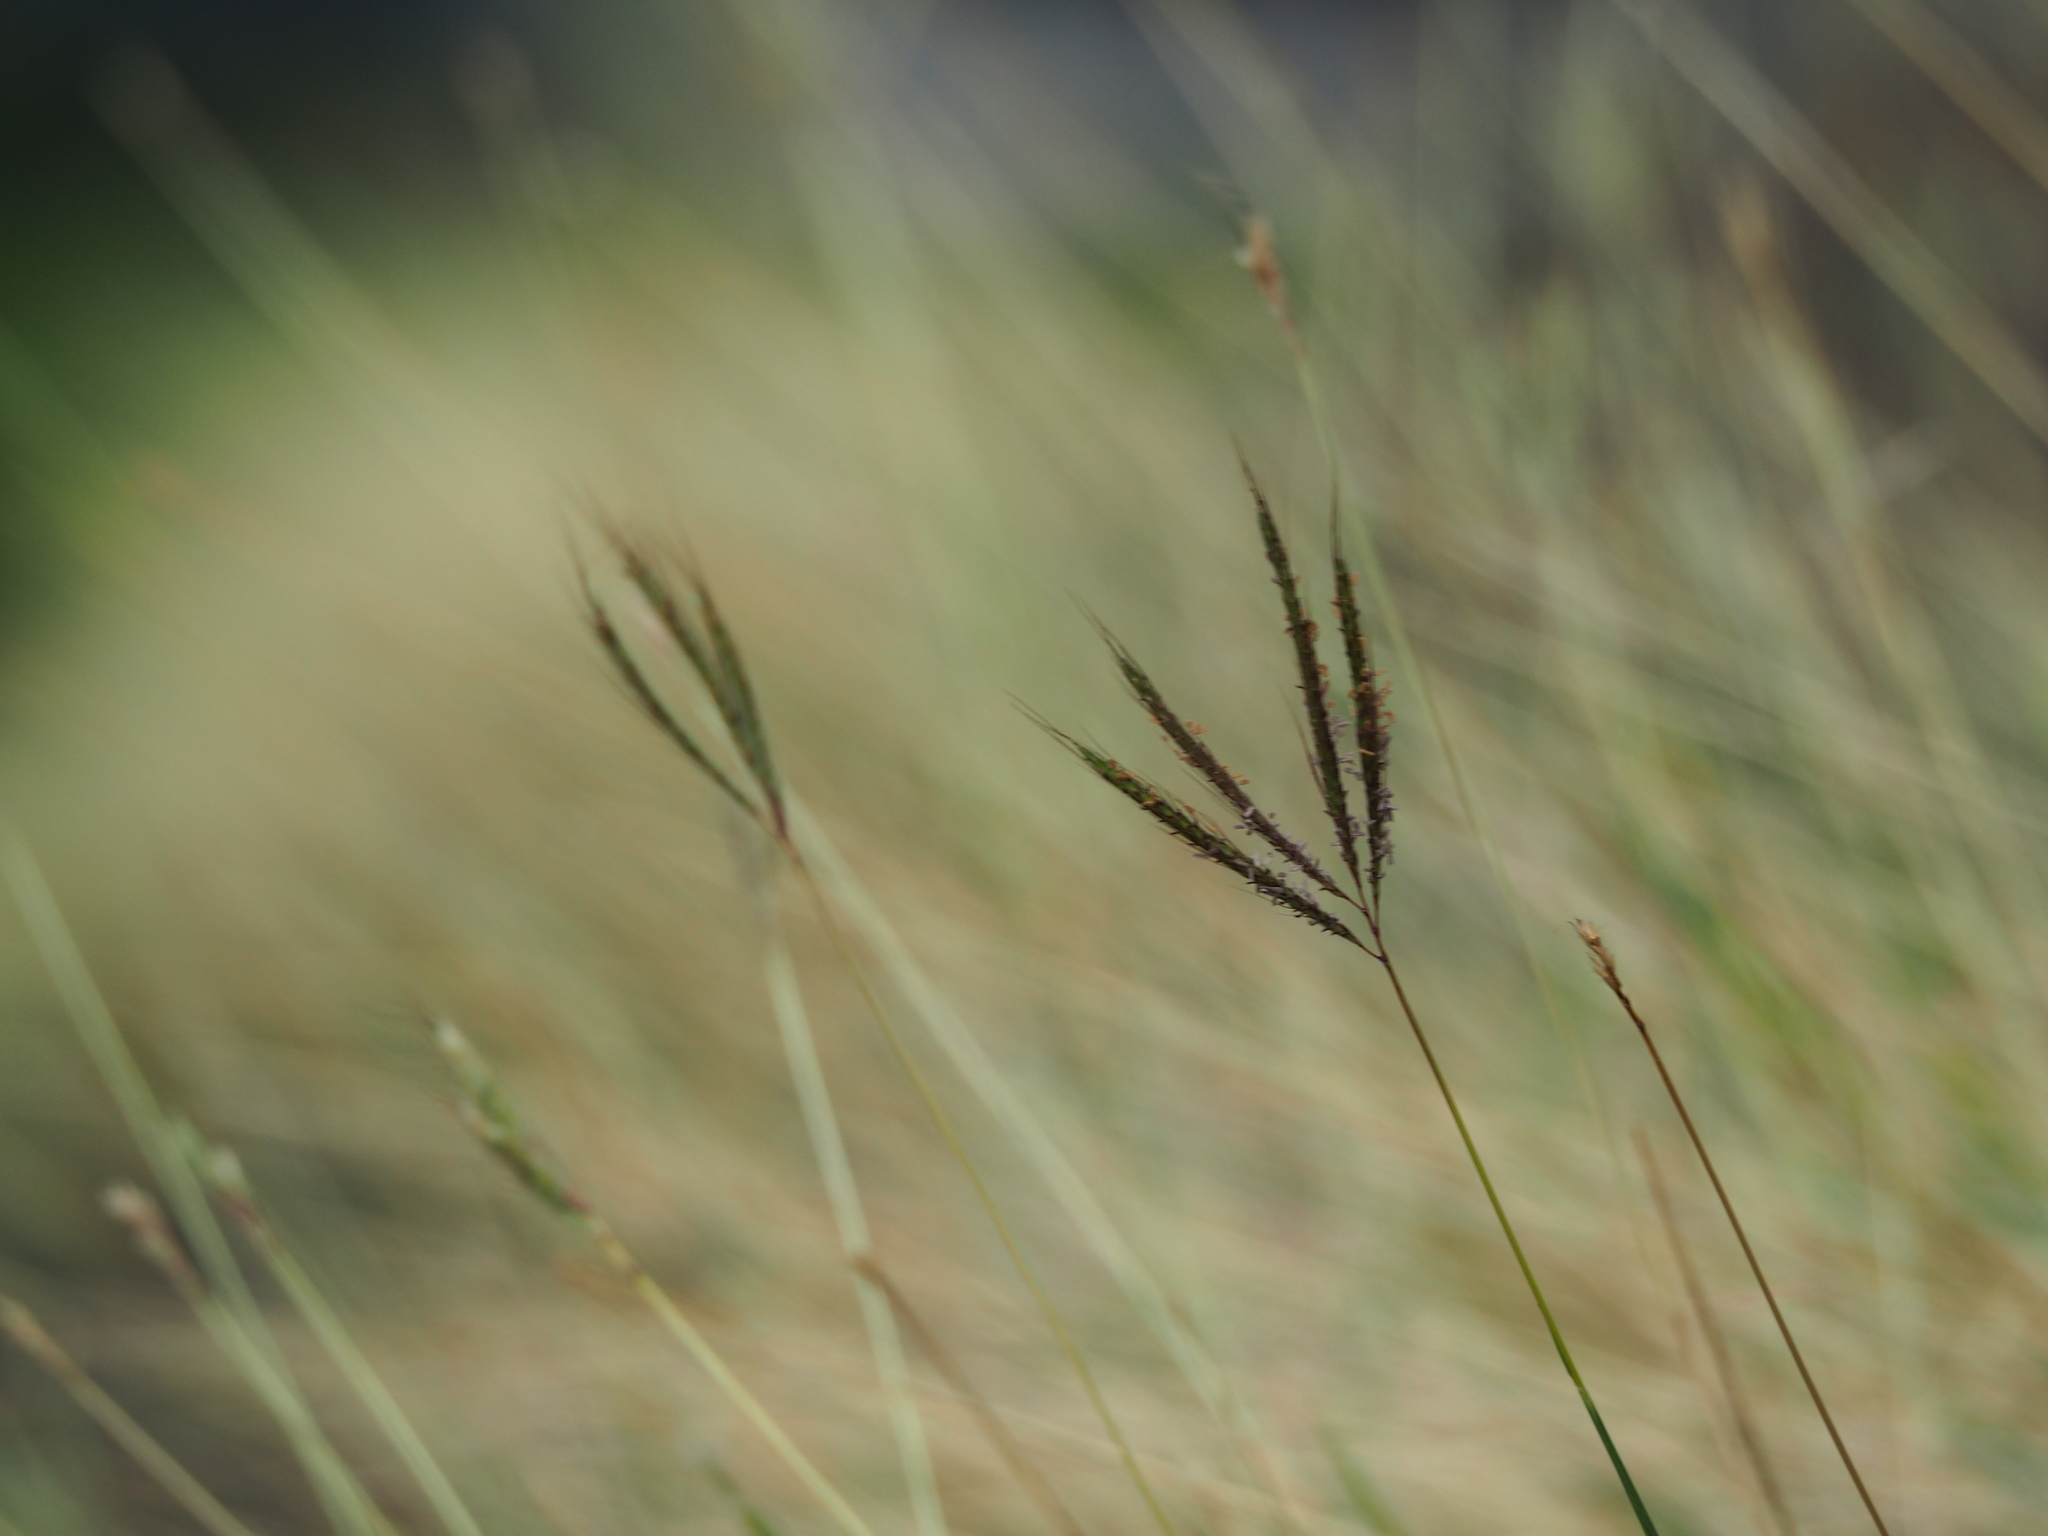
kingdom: Plantae
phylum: Tracheophyta
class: Liliopsida
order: Poales
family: Poaceae
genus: Dichanthium
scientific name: Dichanthium annulatum
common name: Kleberg's bluestem
